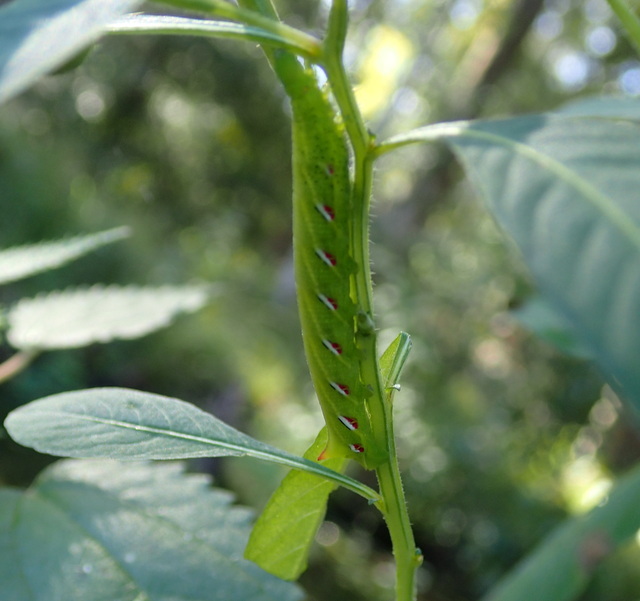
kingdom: Animalia
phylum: Arthropoda
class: Insecta
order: Lepidoptera
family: Sphingidae
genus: Eumorpha
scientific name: Eumorpha fasciatus
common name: Banded sphinx
